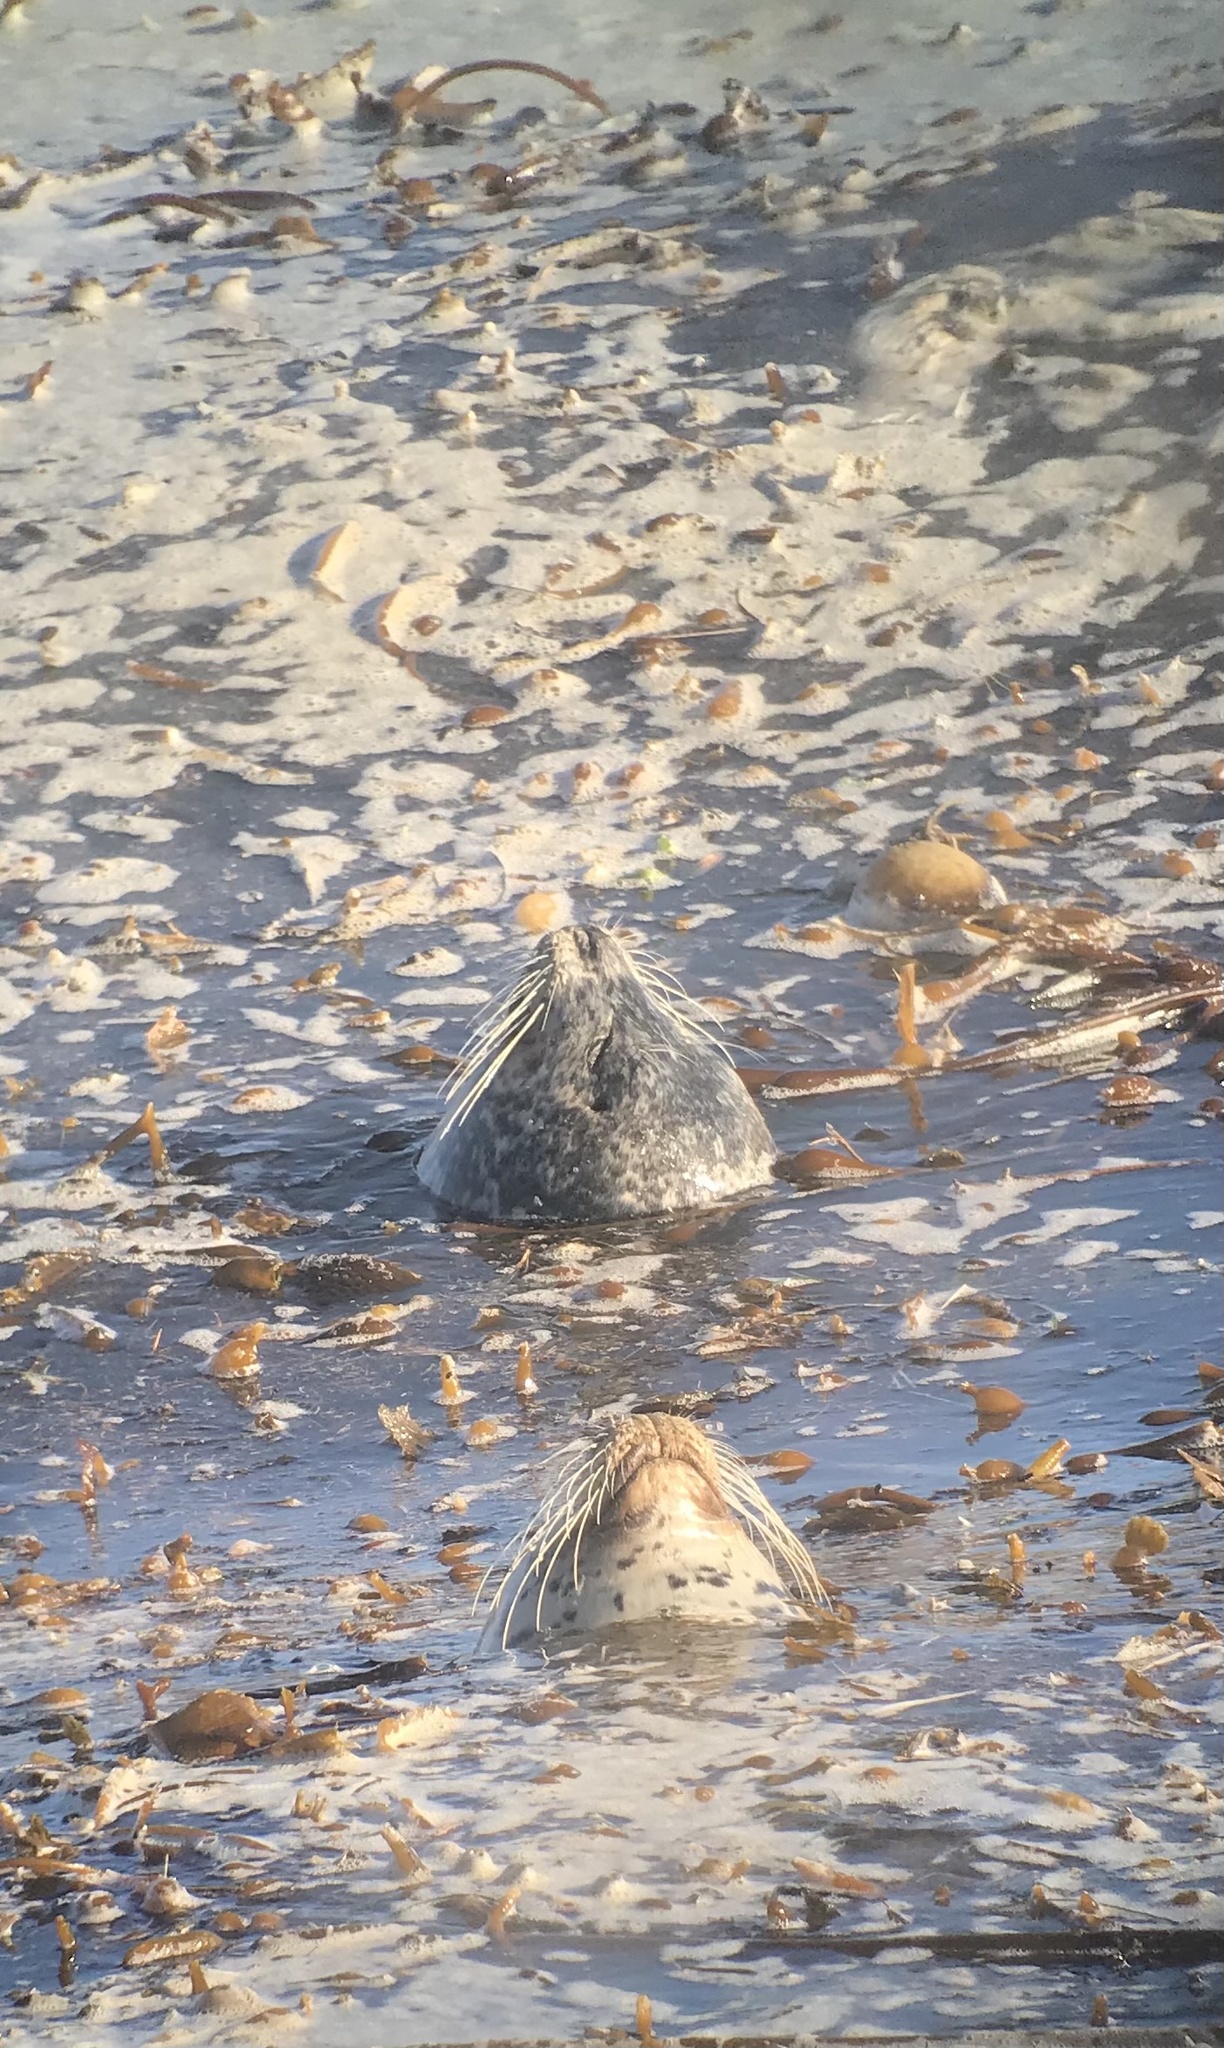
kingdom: Animalia
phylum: Chordata
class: Mammalia
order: Carnivora
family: Phocidae
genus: Phoca
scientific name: Phoca vitulina
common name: Harbor seal
